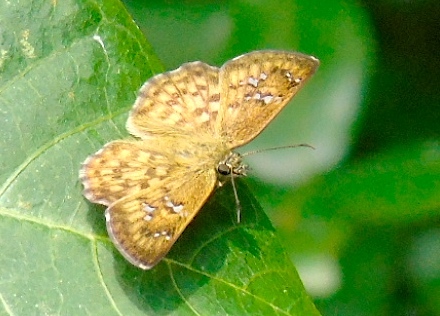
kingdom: Animalia
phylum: Arthropoda
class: Insecta
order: Lepidoptera
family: Hesperiidae
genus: Canesia
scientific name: Canesia canescens
